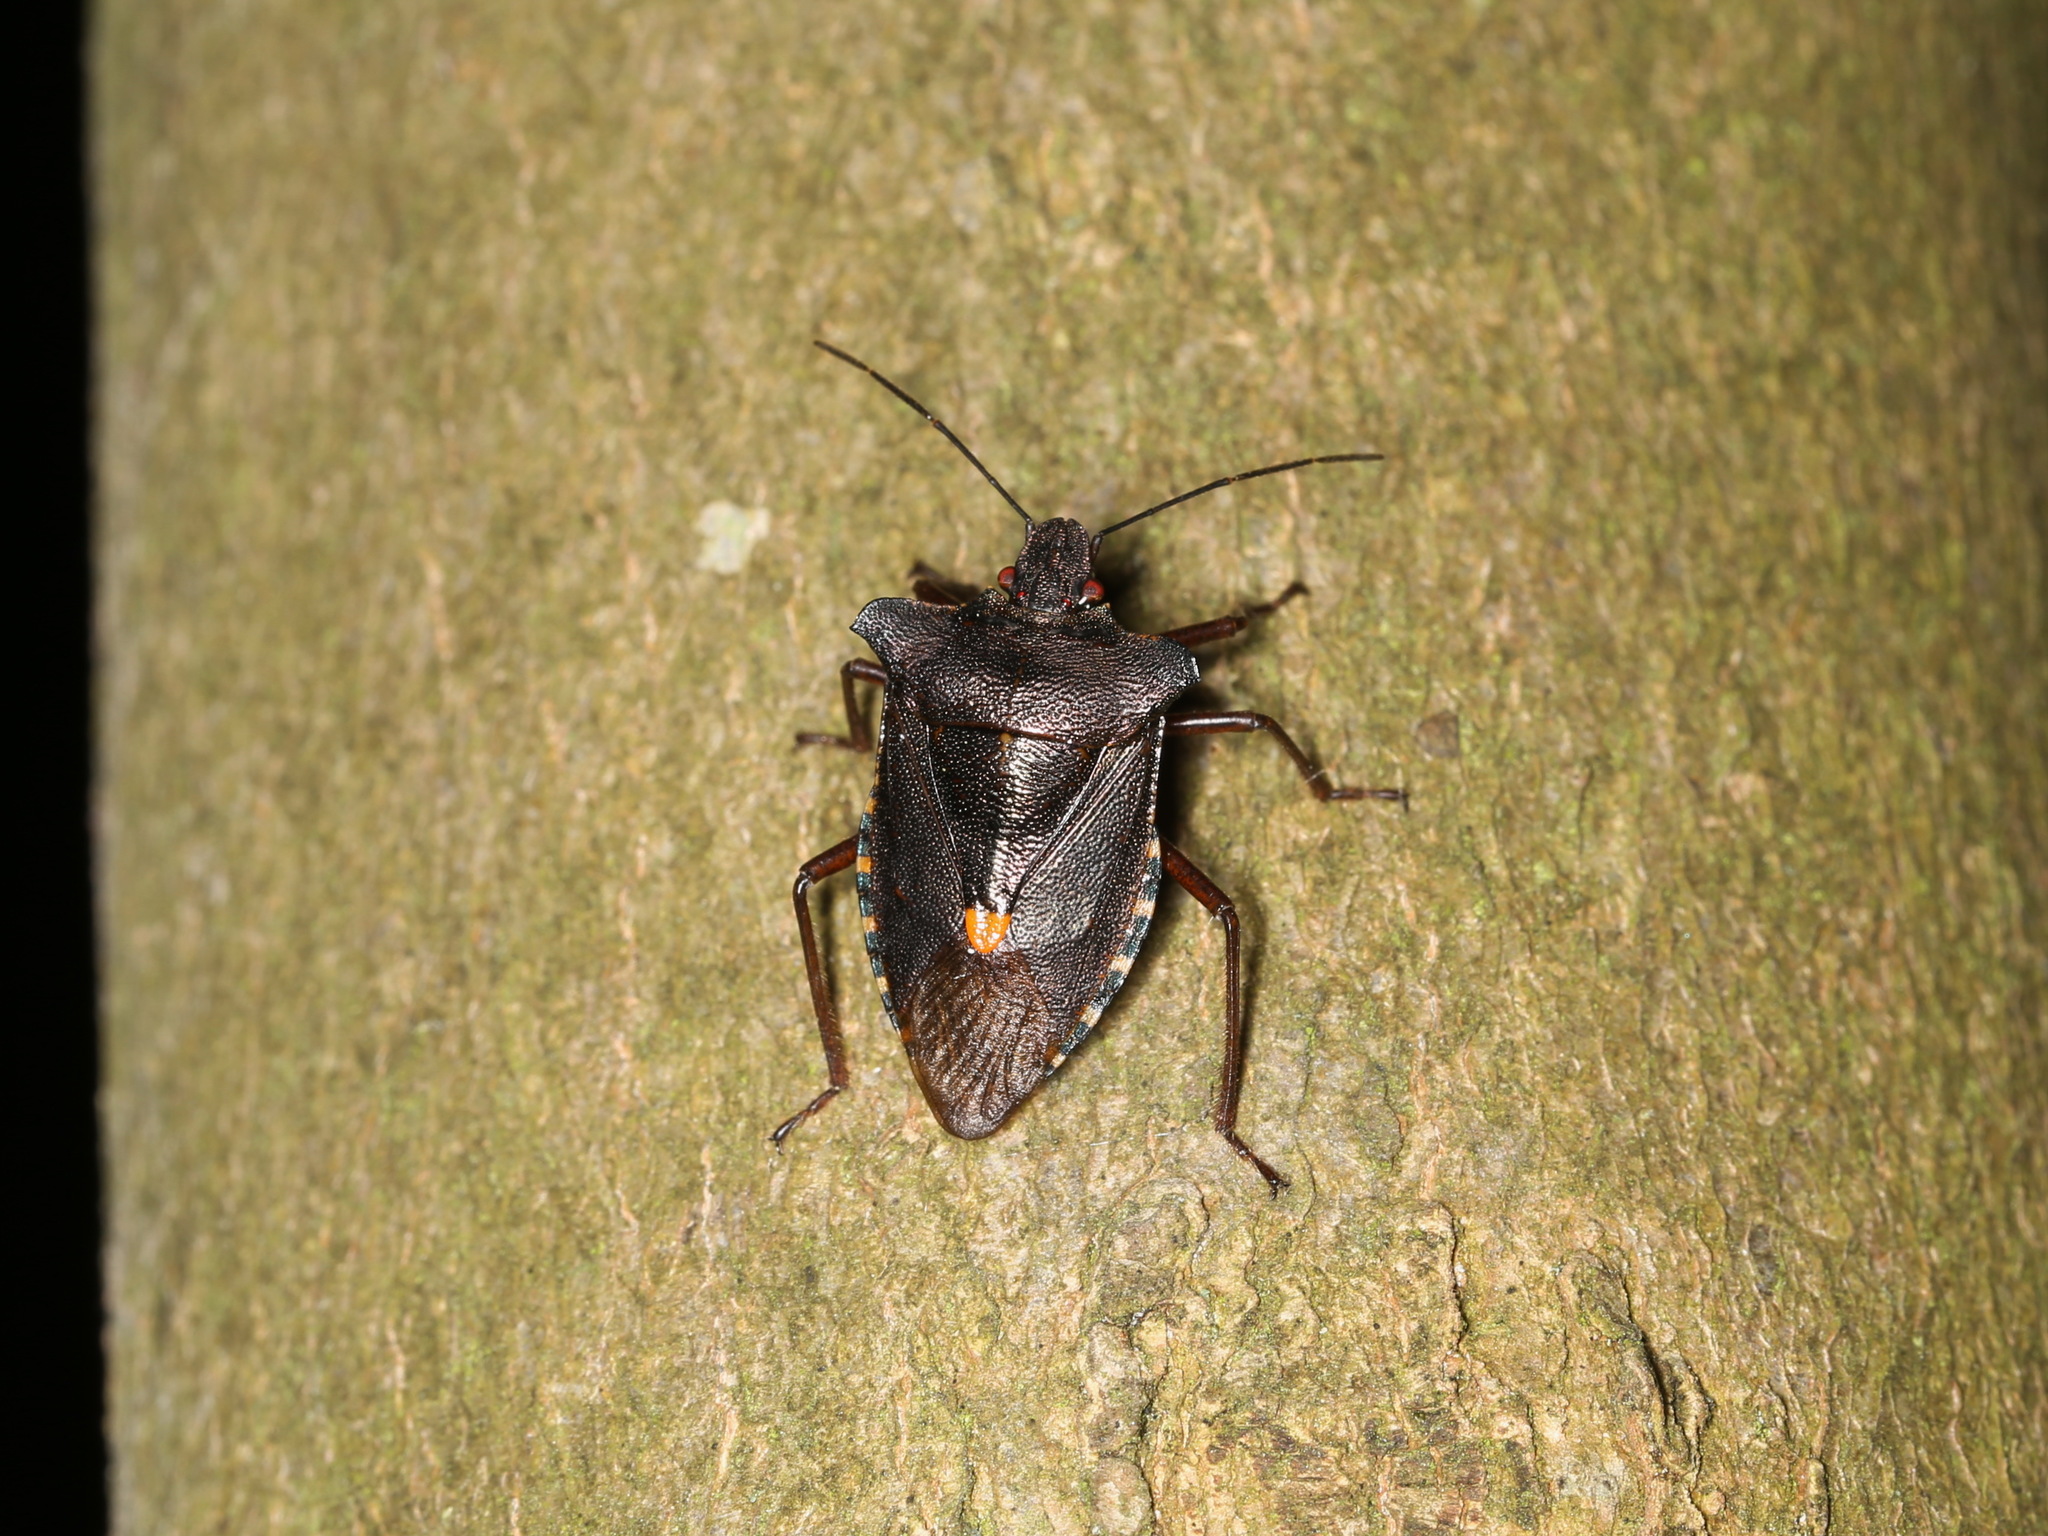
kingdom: Animalia
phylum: Arthropoda
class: Insecta
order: Hemiptera
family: Pentatomidae
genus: Pentatoma
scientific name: Pentatoma rufipes
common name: Forest bug
